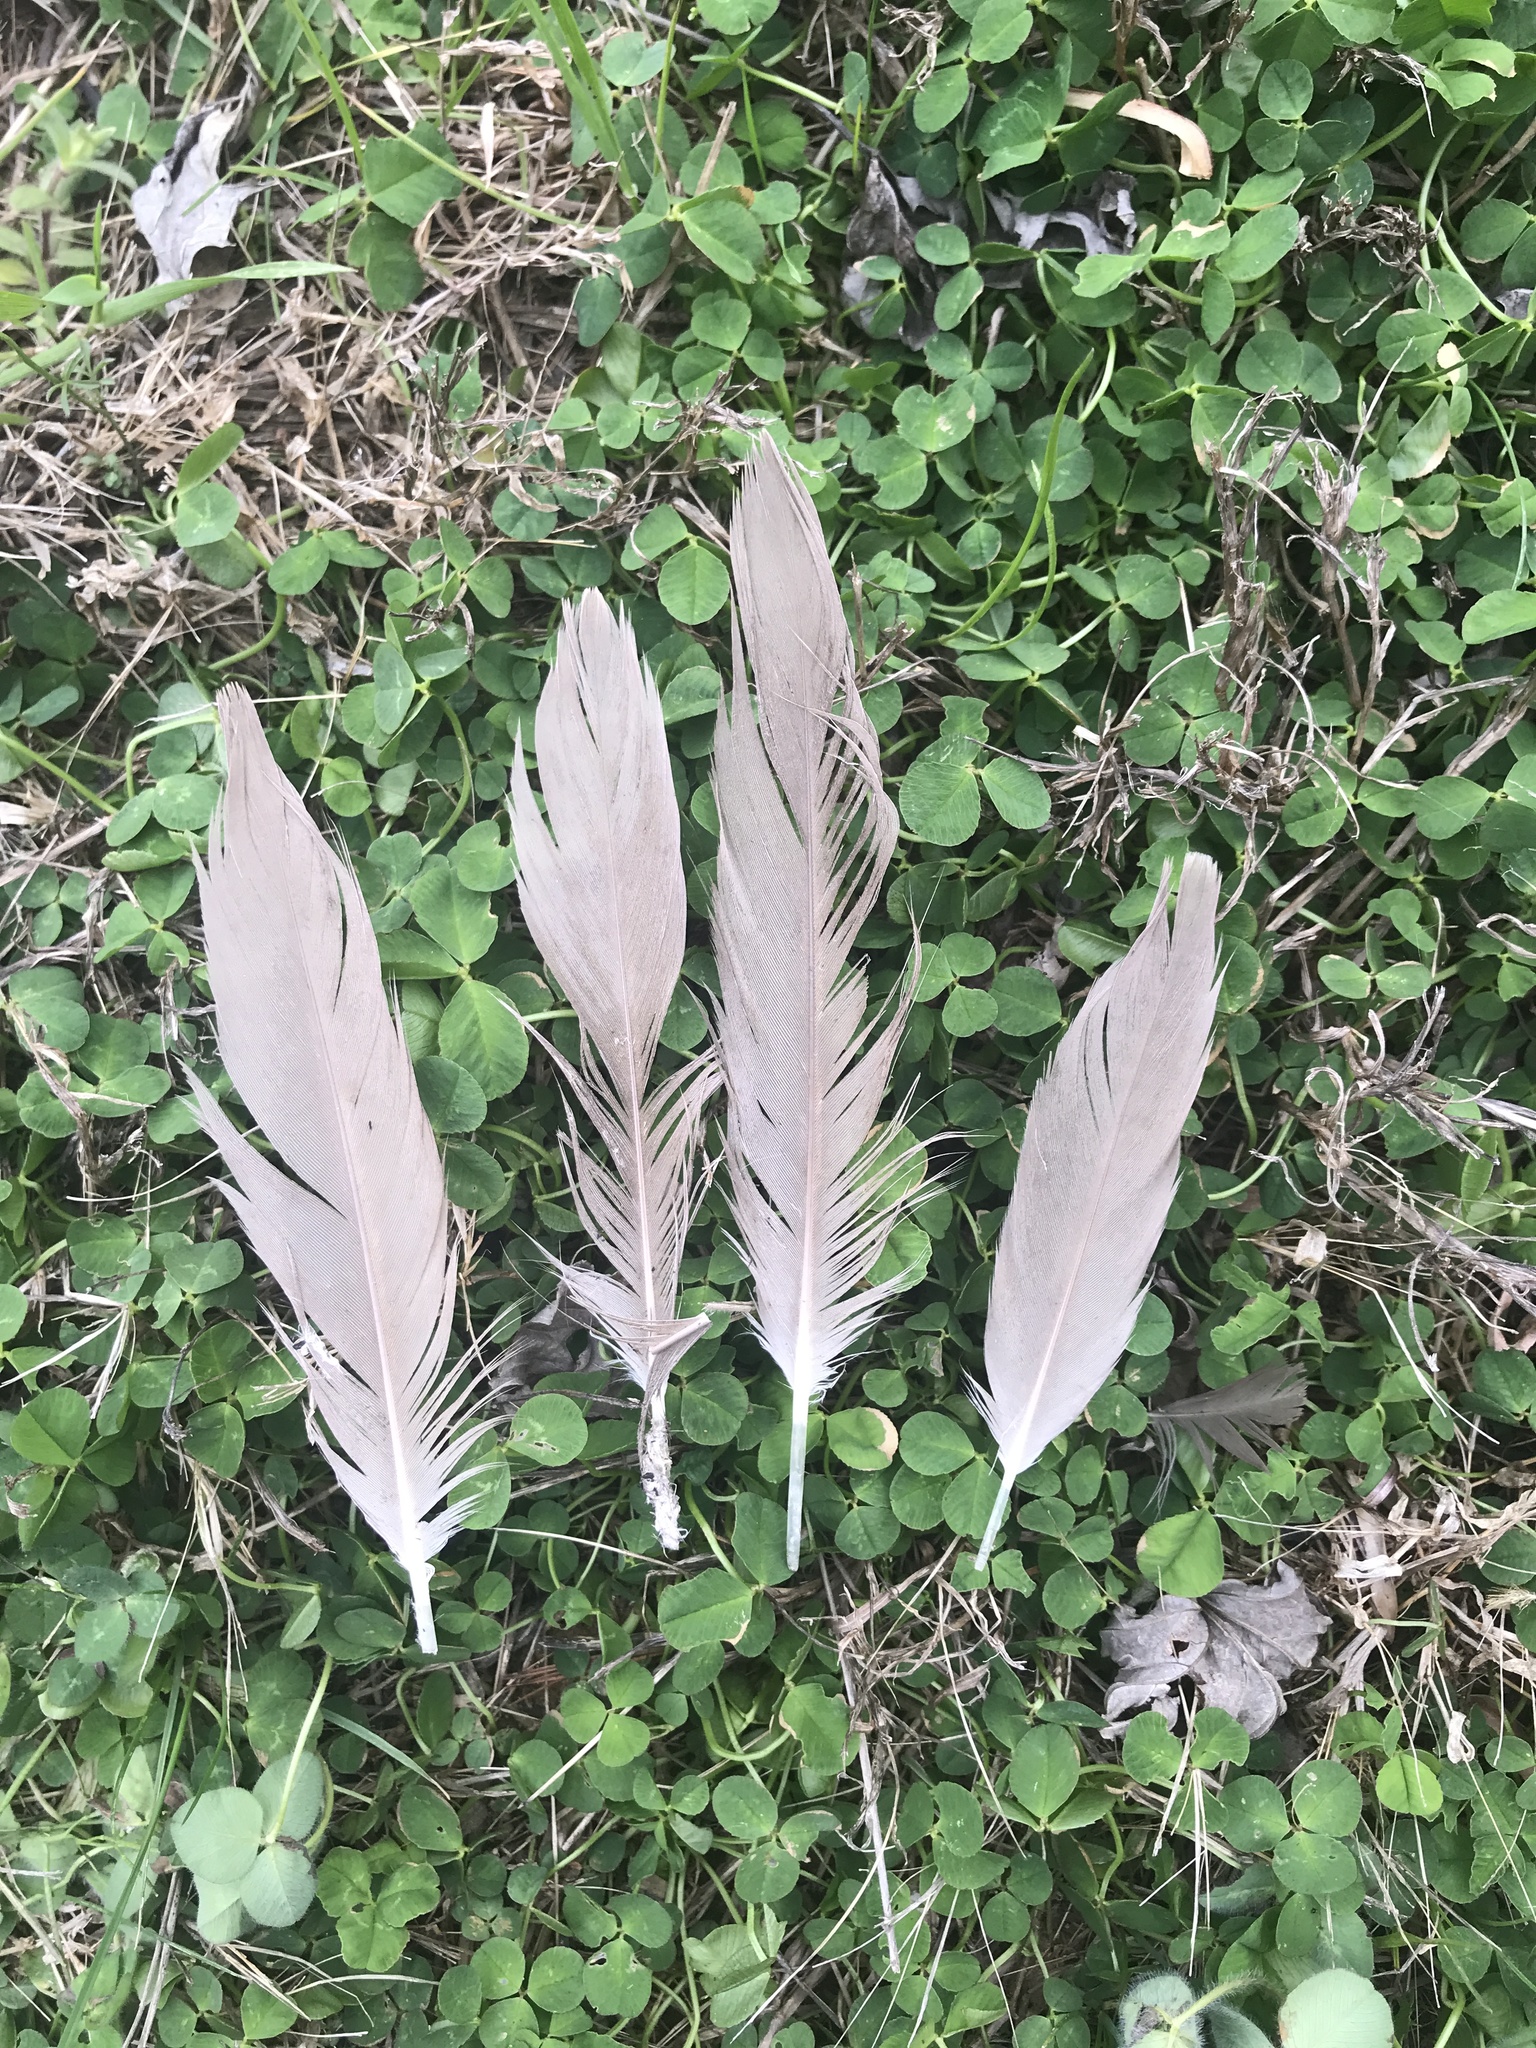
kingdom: Animalia
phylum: Chordata
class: Aves
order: Anseriformes
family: Anatidae
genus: Branta
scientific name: Branta canadensis
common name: Canada goose
